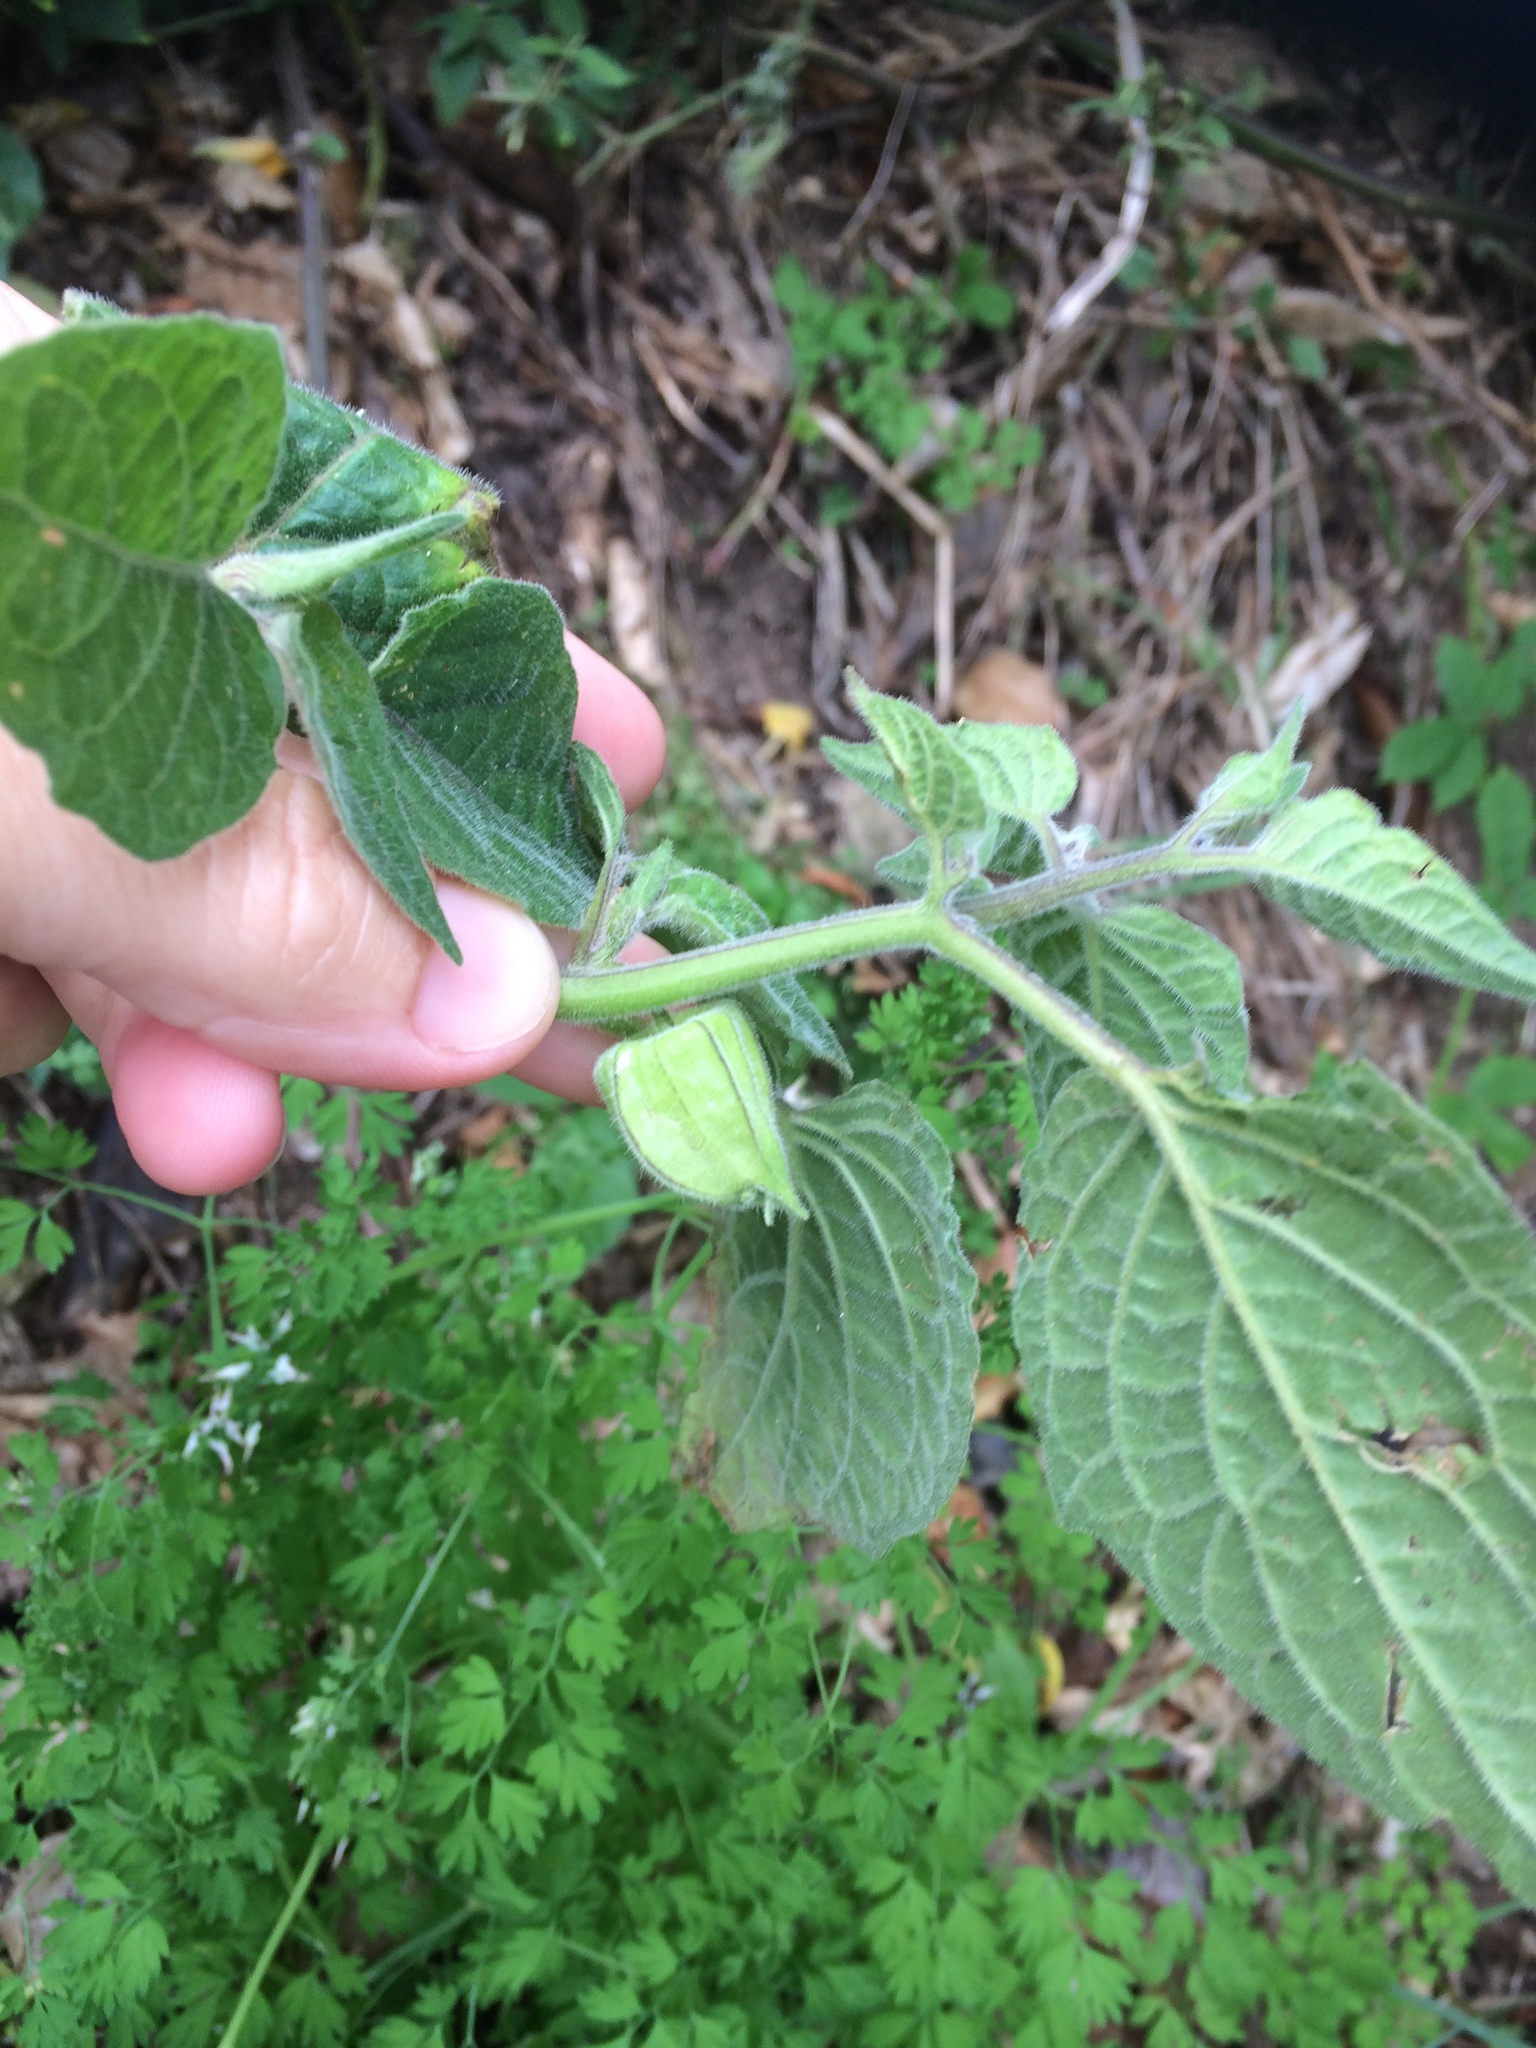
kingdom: Plantae
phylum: Tracheophyta
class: Magnoliopsida
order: Solanales
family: Solanaceae
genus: Physalis
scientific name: Physalis peruviana
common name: Cape-gooseberry
